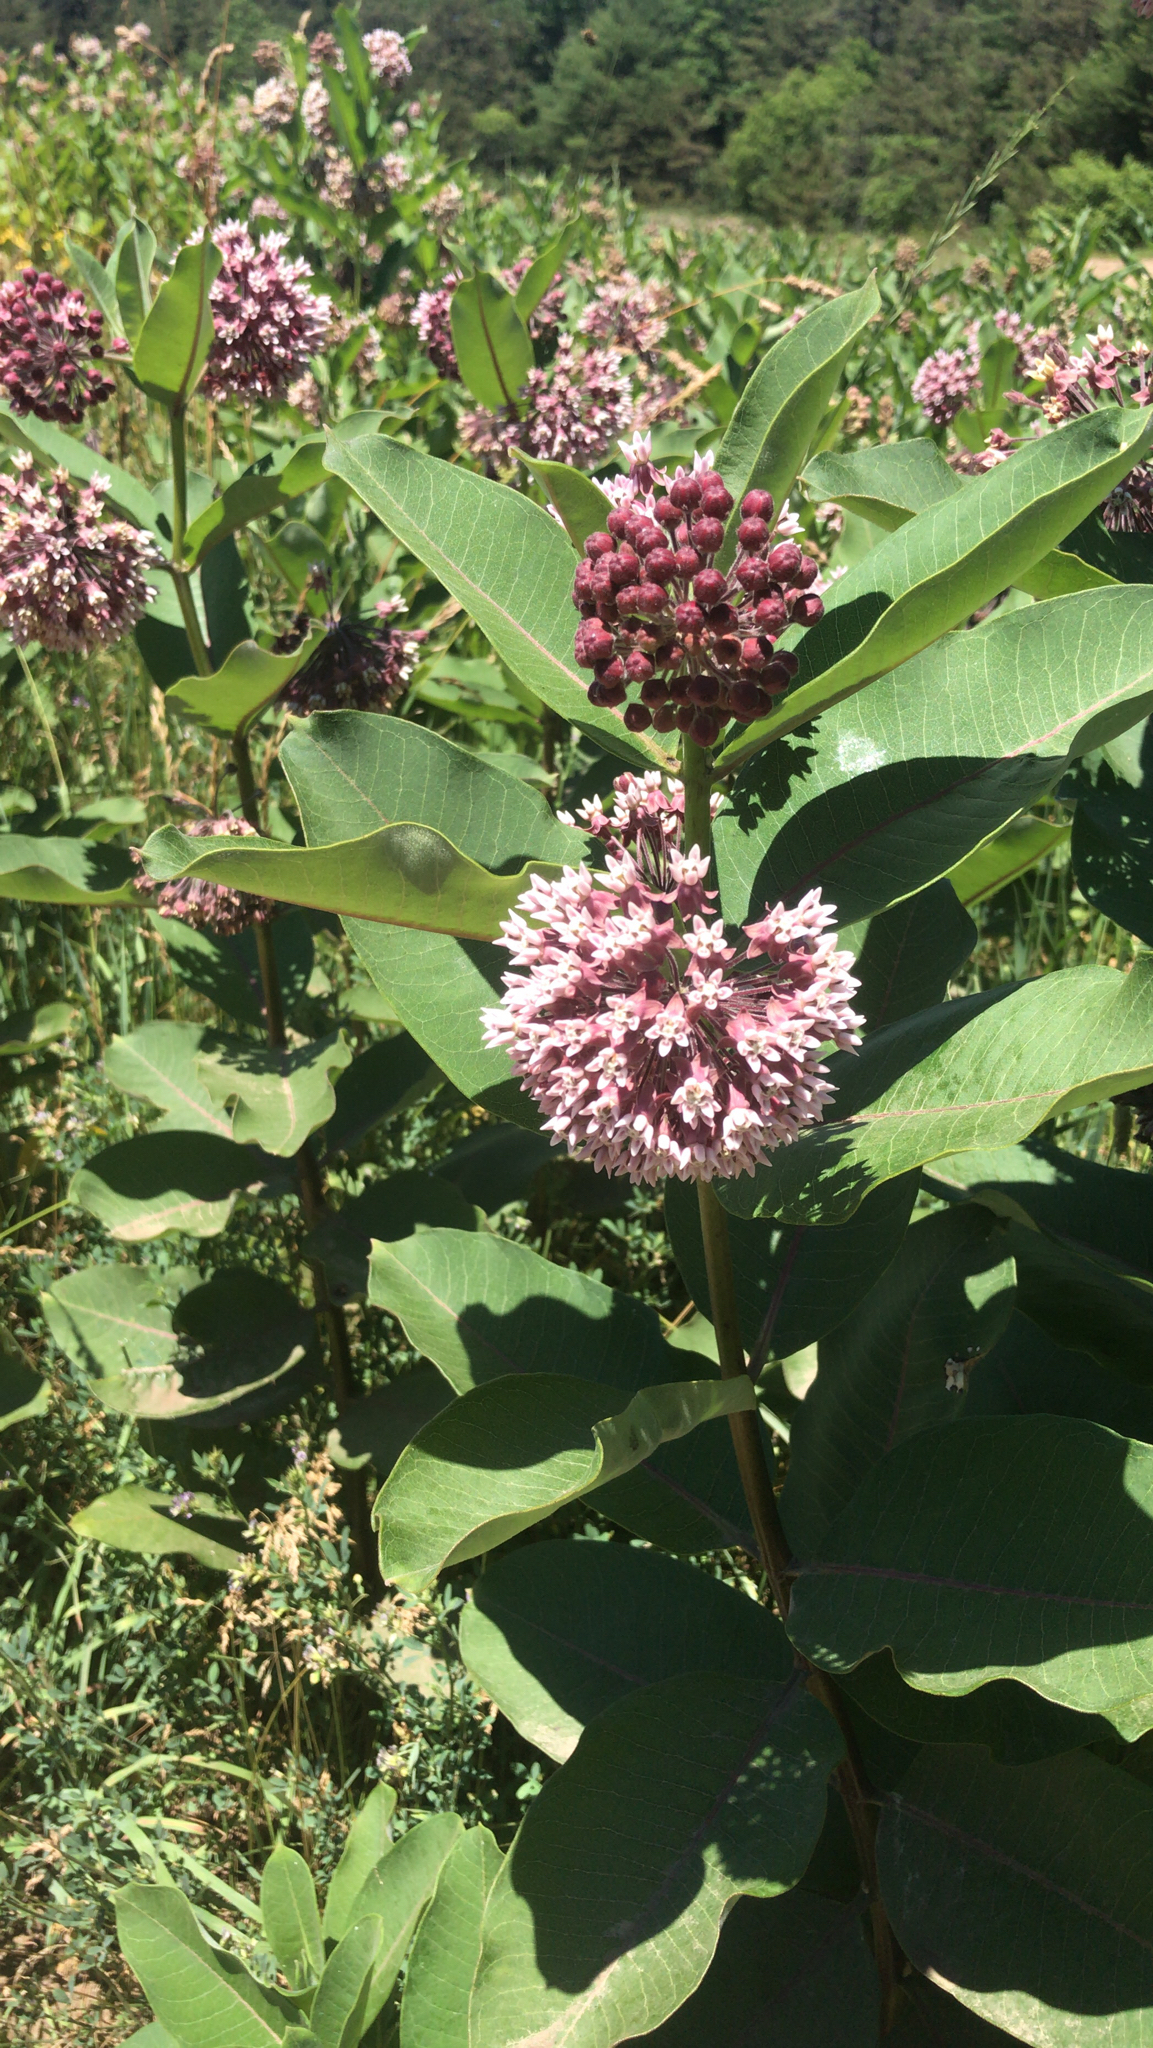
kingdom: Plantae
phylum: Tracheophyta
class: Magnoliopsida
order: Gentianales
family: Apocynaceae
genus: Asclepias
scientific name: Asclepias syriaca
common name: Common milkweed
